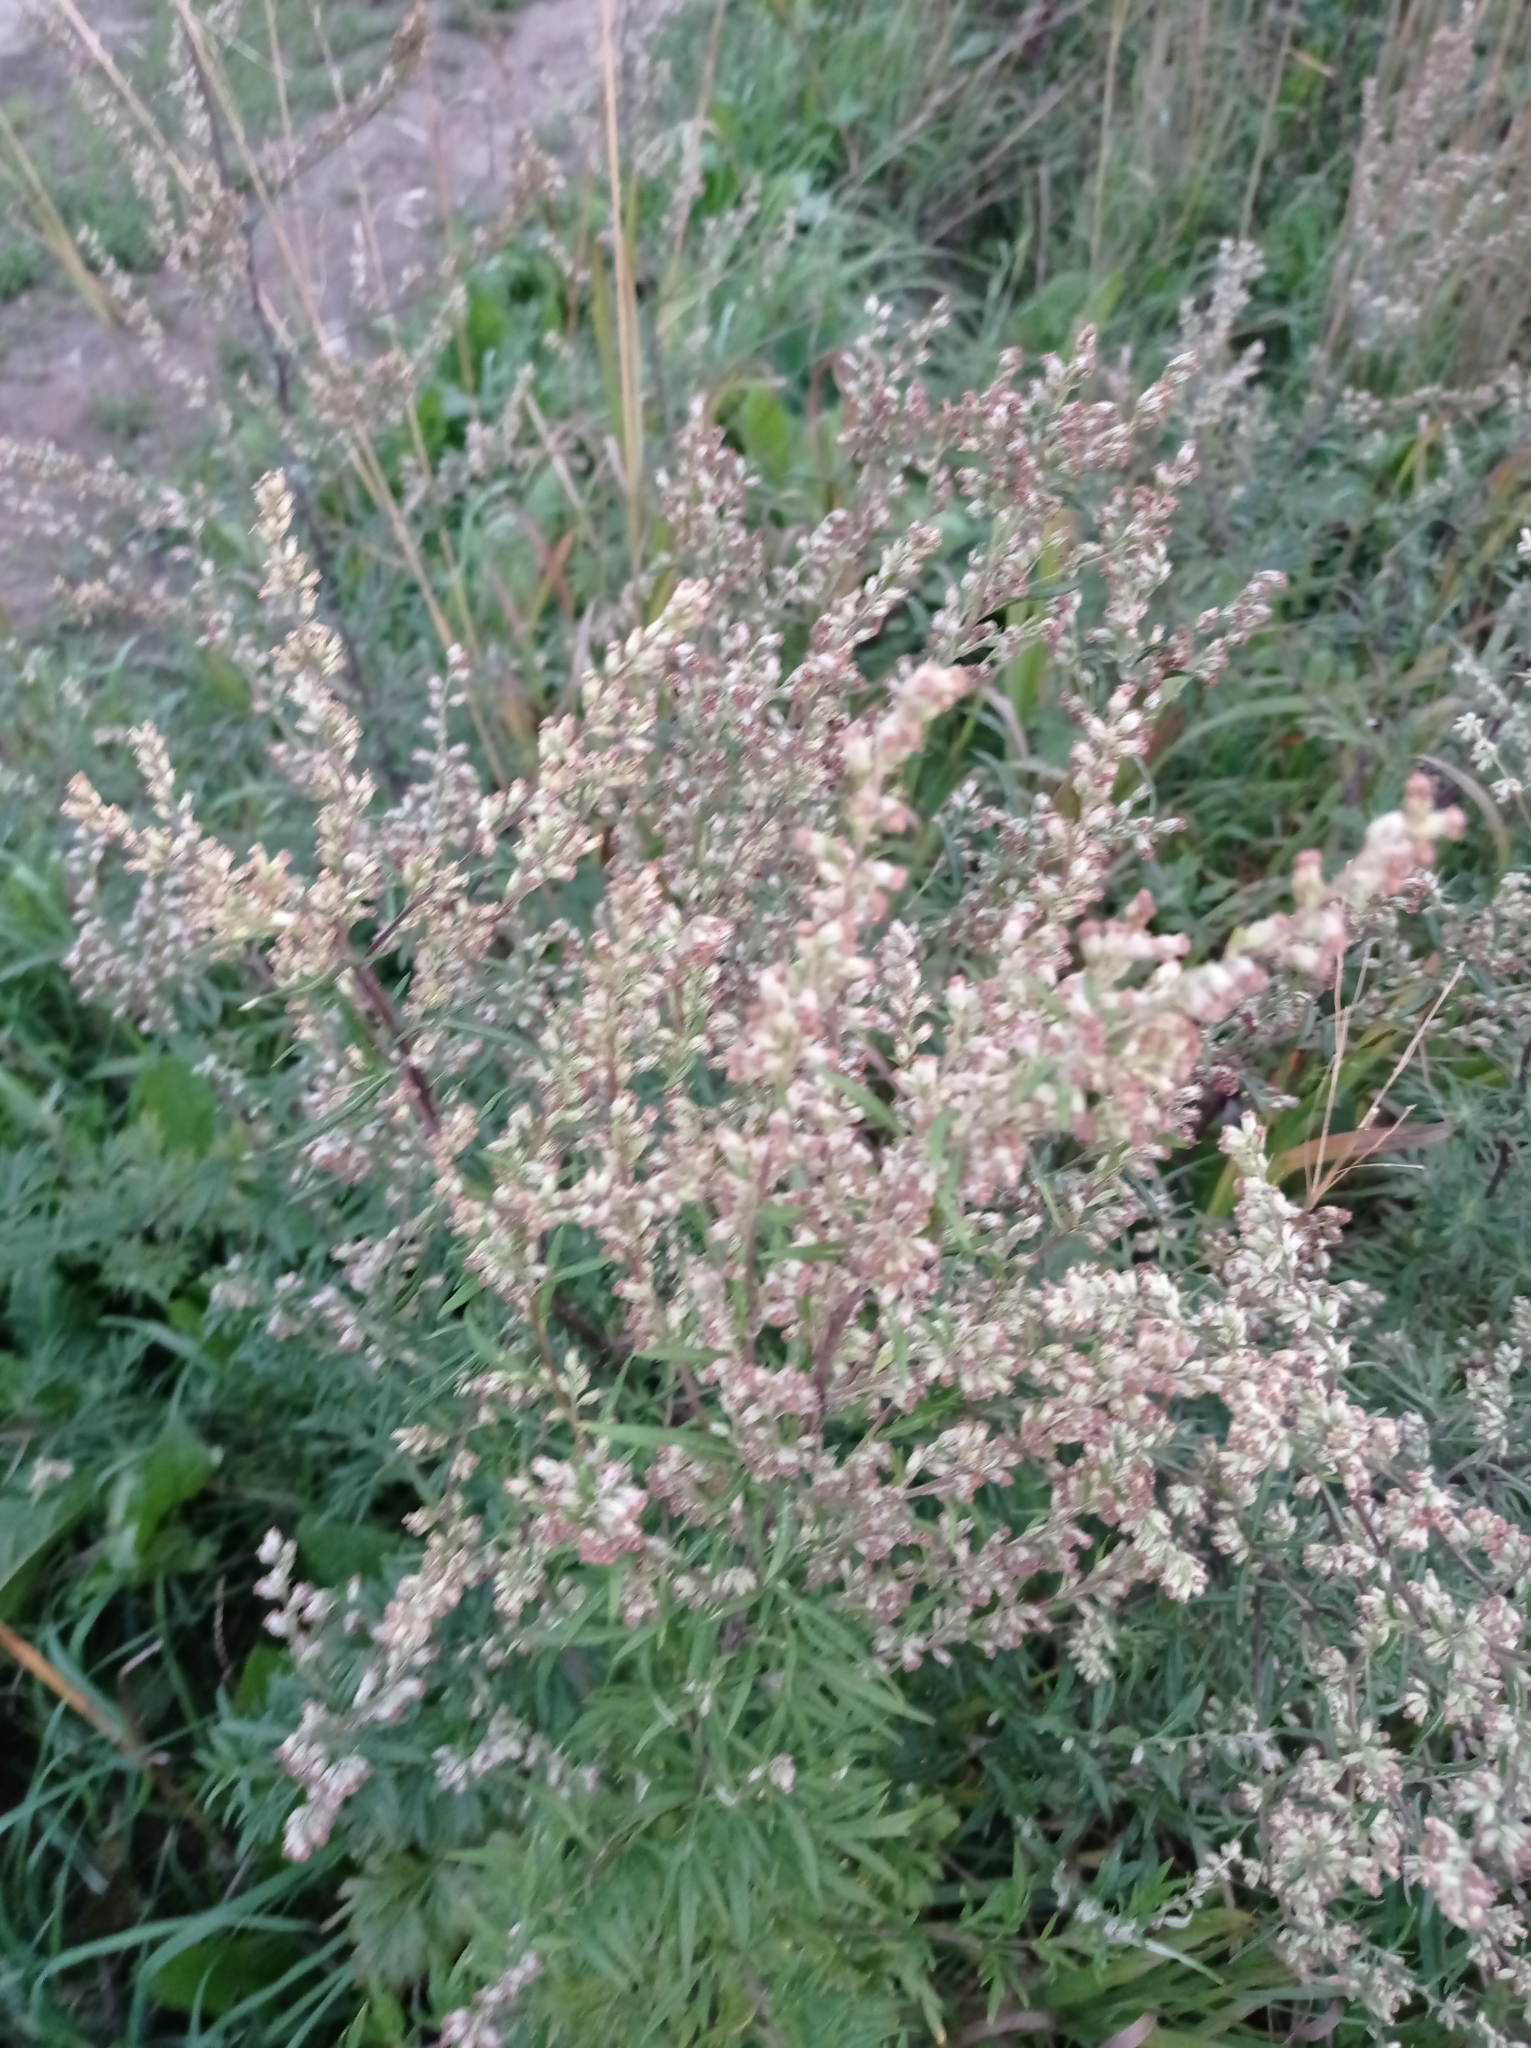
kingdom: Plantae
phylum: Tracheophyta
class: Magnoliopsida
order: Asterales
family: Asteraceae
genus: Artemisia
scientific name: Artemisia vulgaris
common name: Mugwort
